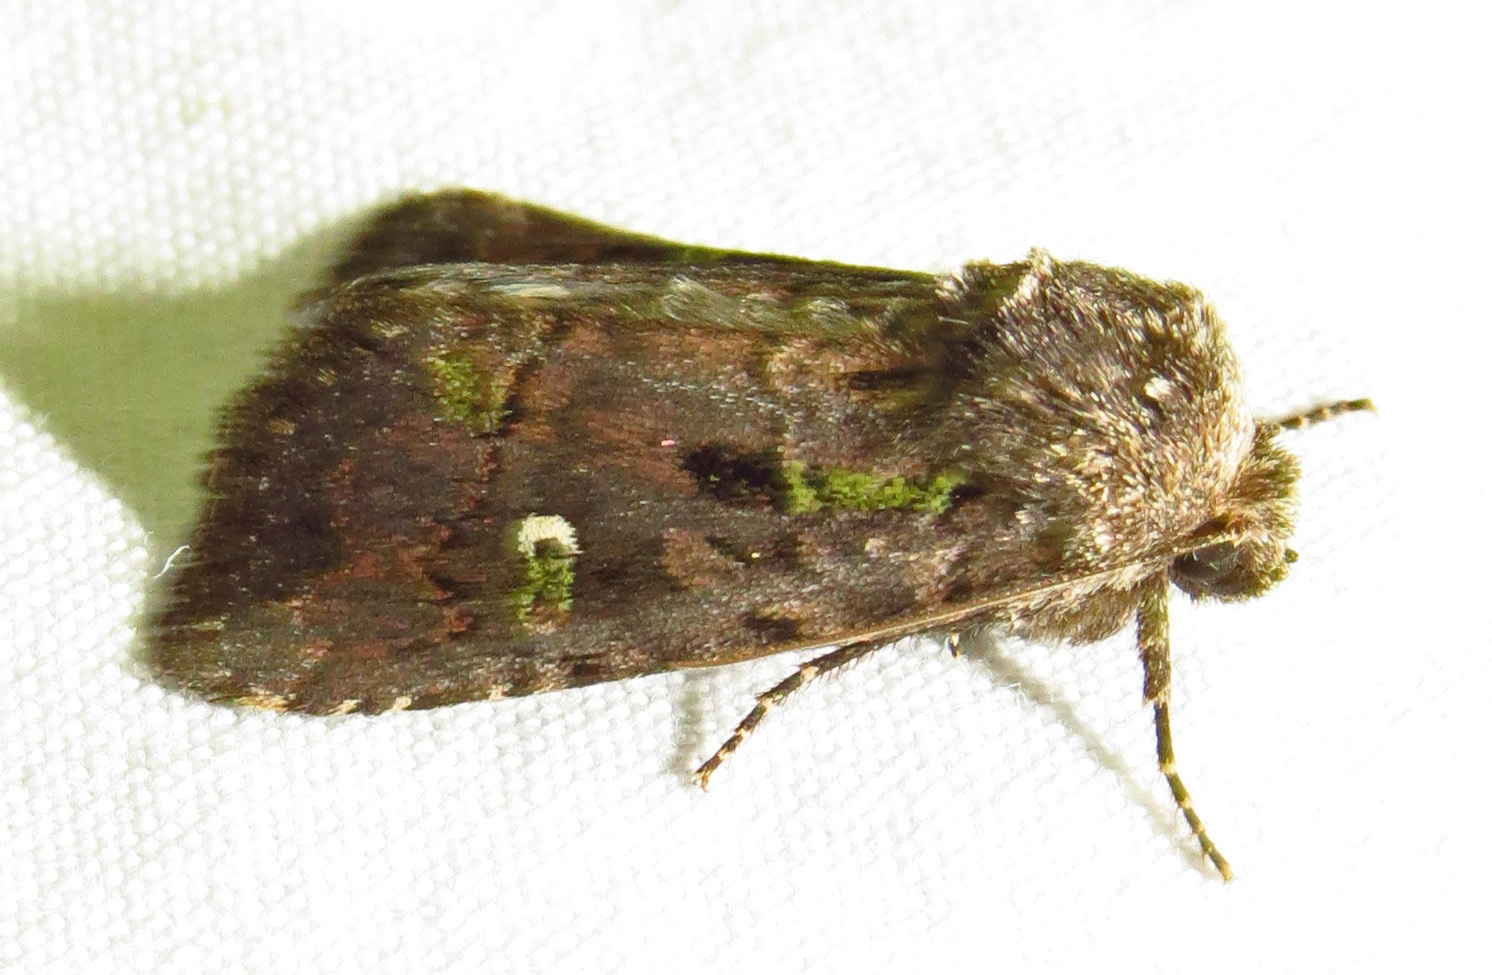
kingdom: Animalia
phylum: Arthropoda
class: Insecta
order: Lepidoptera
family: Noctuidae
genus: Lacinipolia
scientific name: Lacinipolia renigera
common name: Kidney-spotted minor
